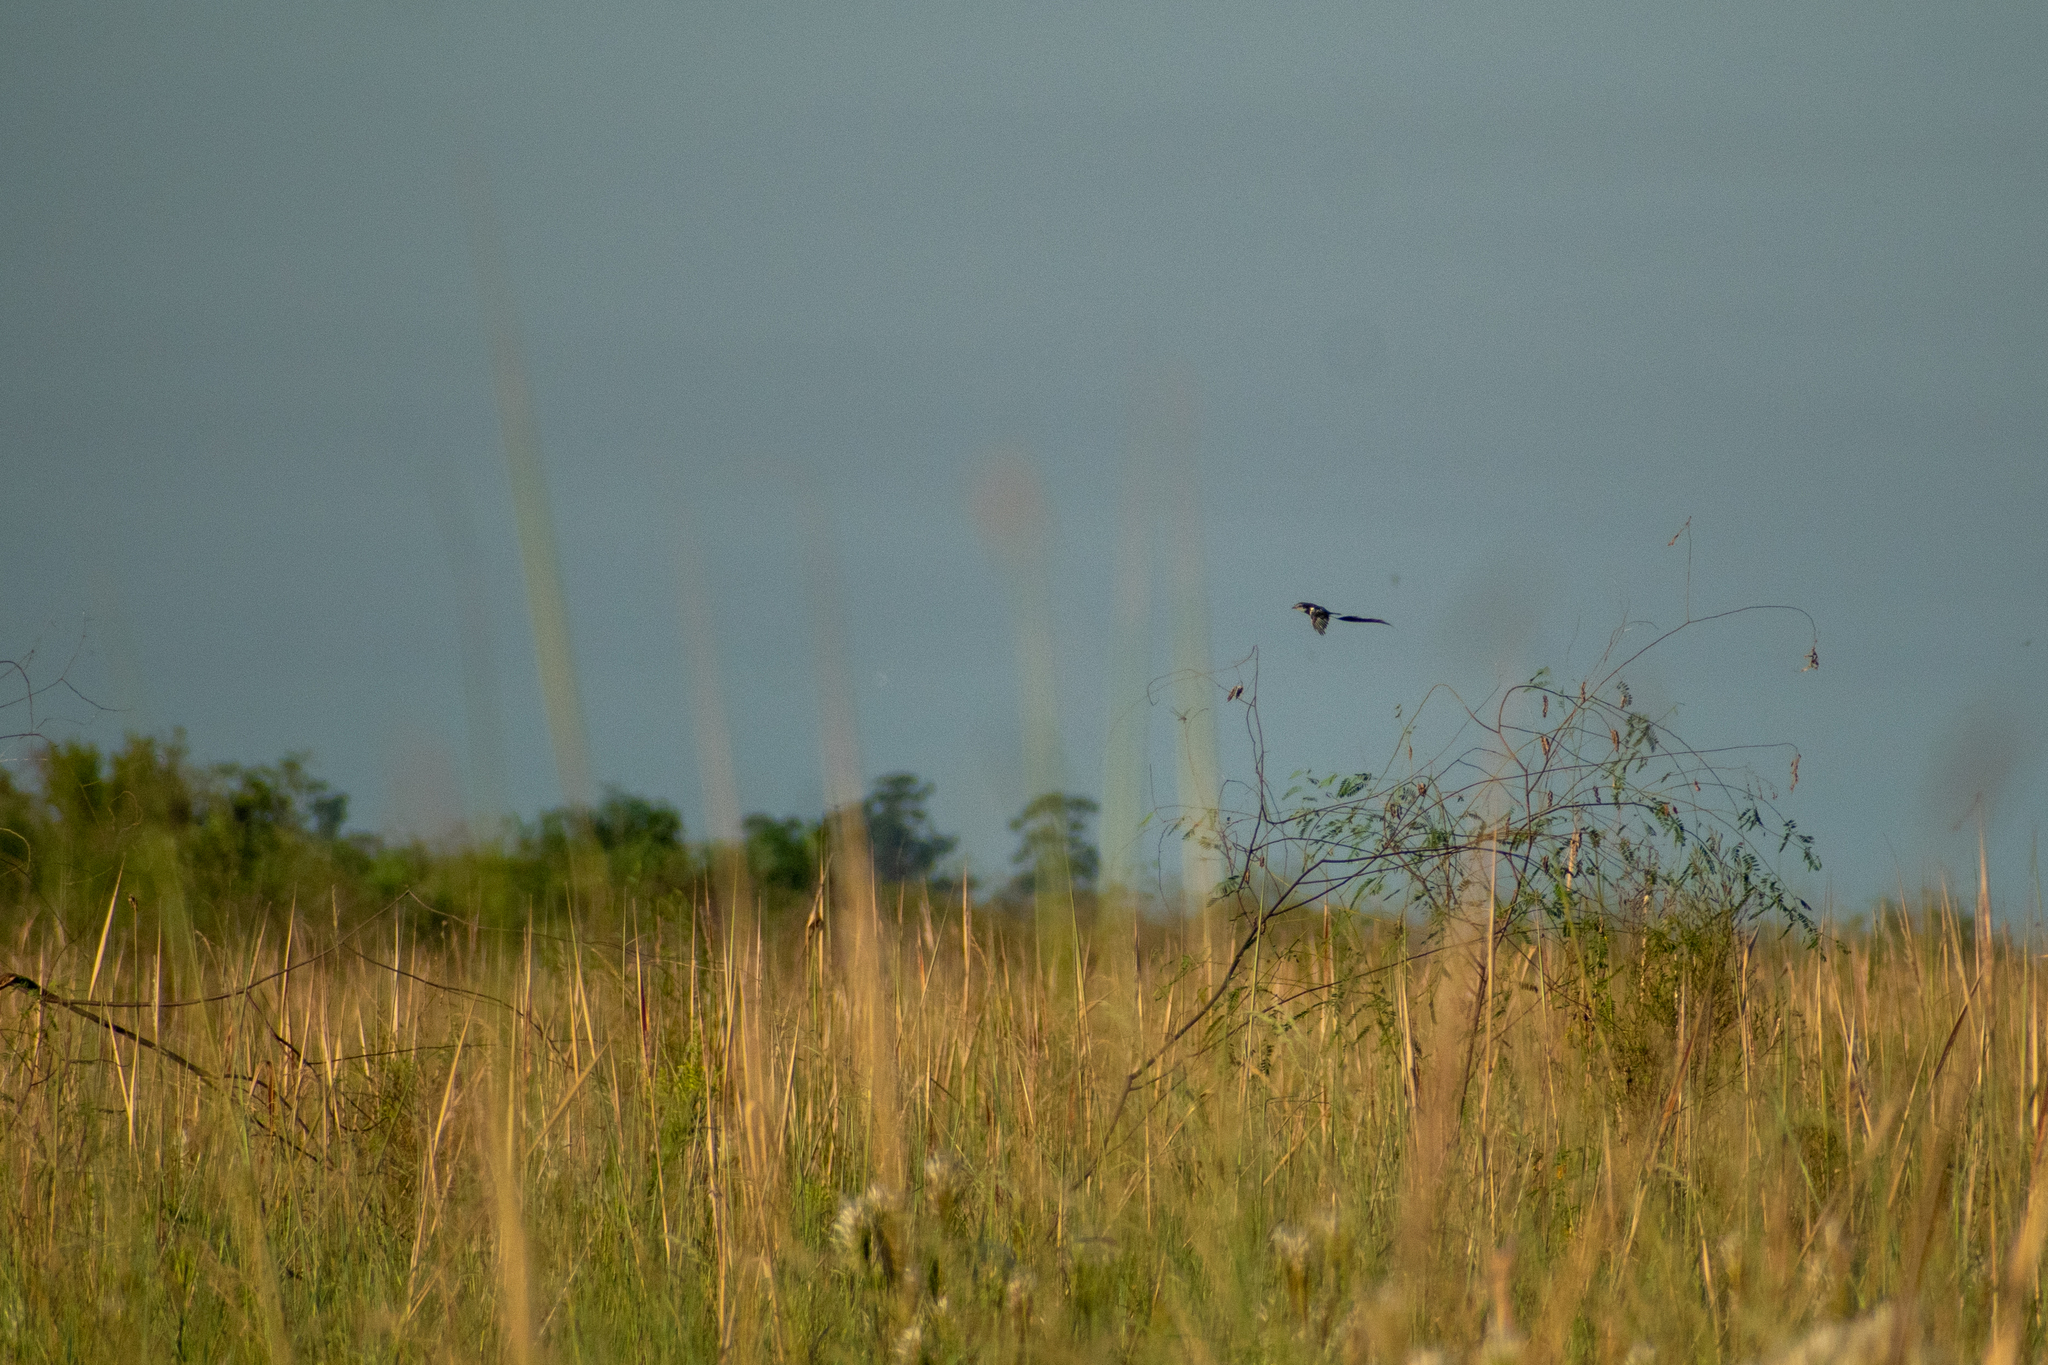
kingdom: Animalia
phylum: Chordata
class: Aves
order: Passeriformes
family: Tyrannidae
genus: Alectrurus
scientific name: Alectrurus risora
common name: Strange-tailed tyrant
